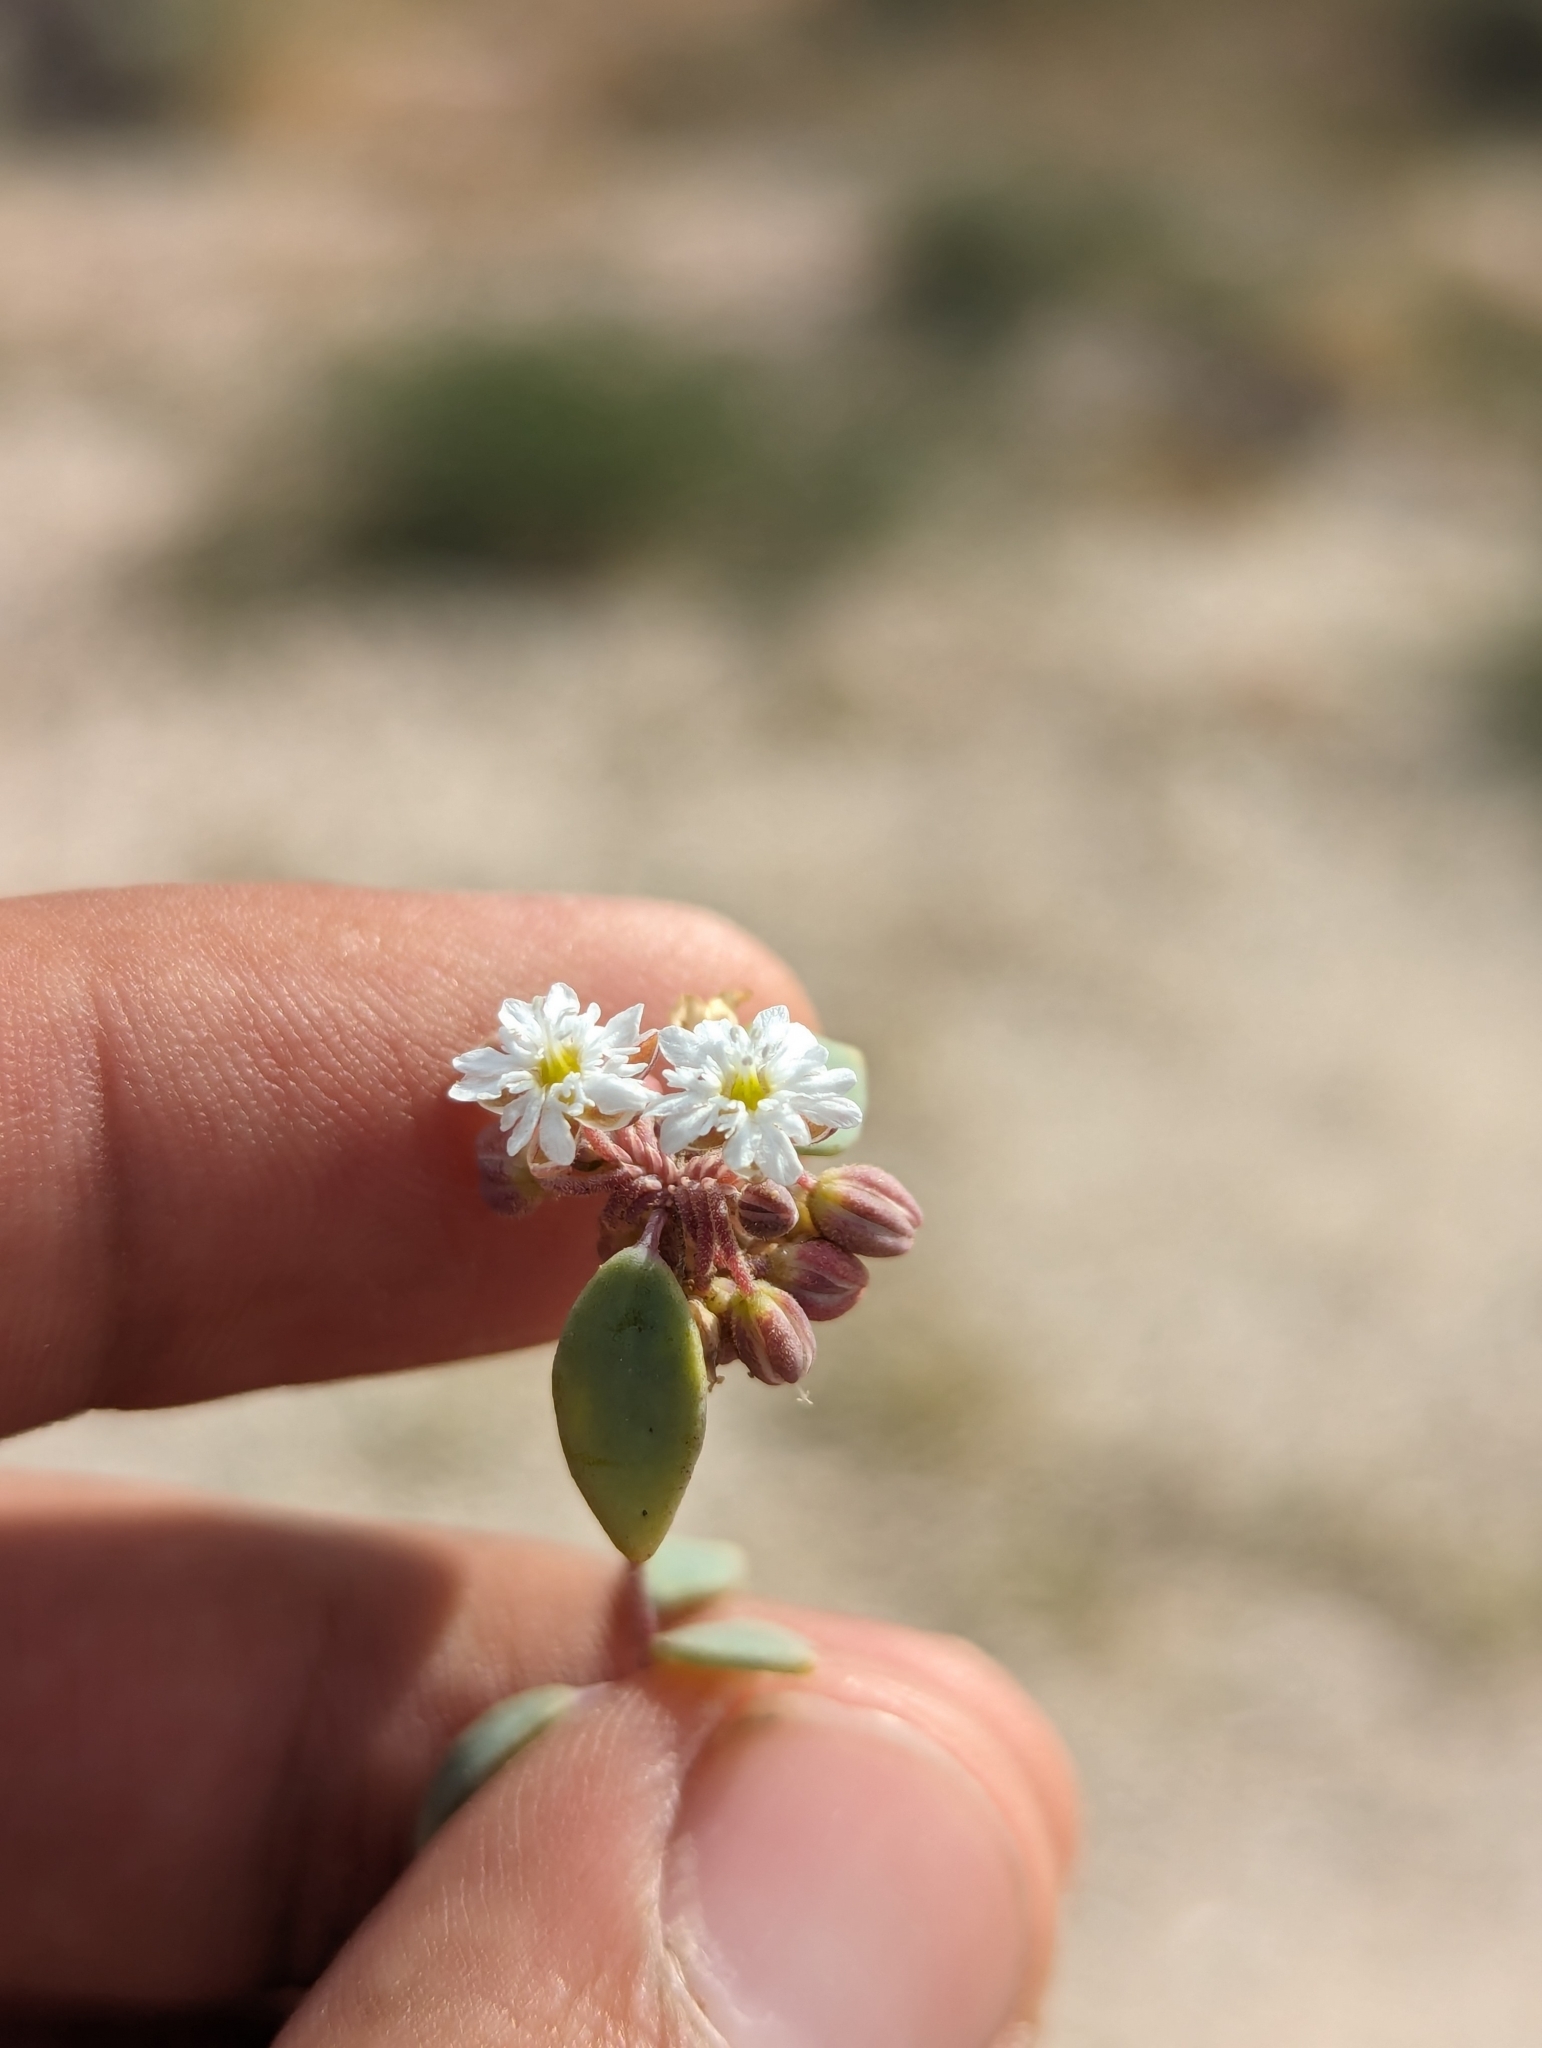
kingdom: Plantae
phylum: Tracheophyta
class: Magnoliopsida
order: Caryophyllales
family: Caryophyllaceae
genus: Drymaria
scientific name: Drymaria holosteoides
